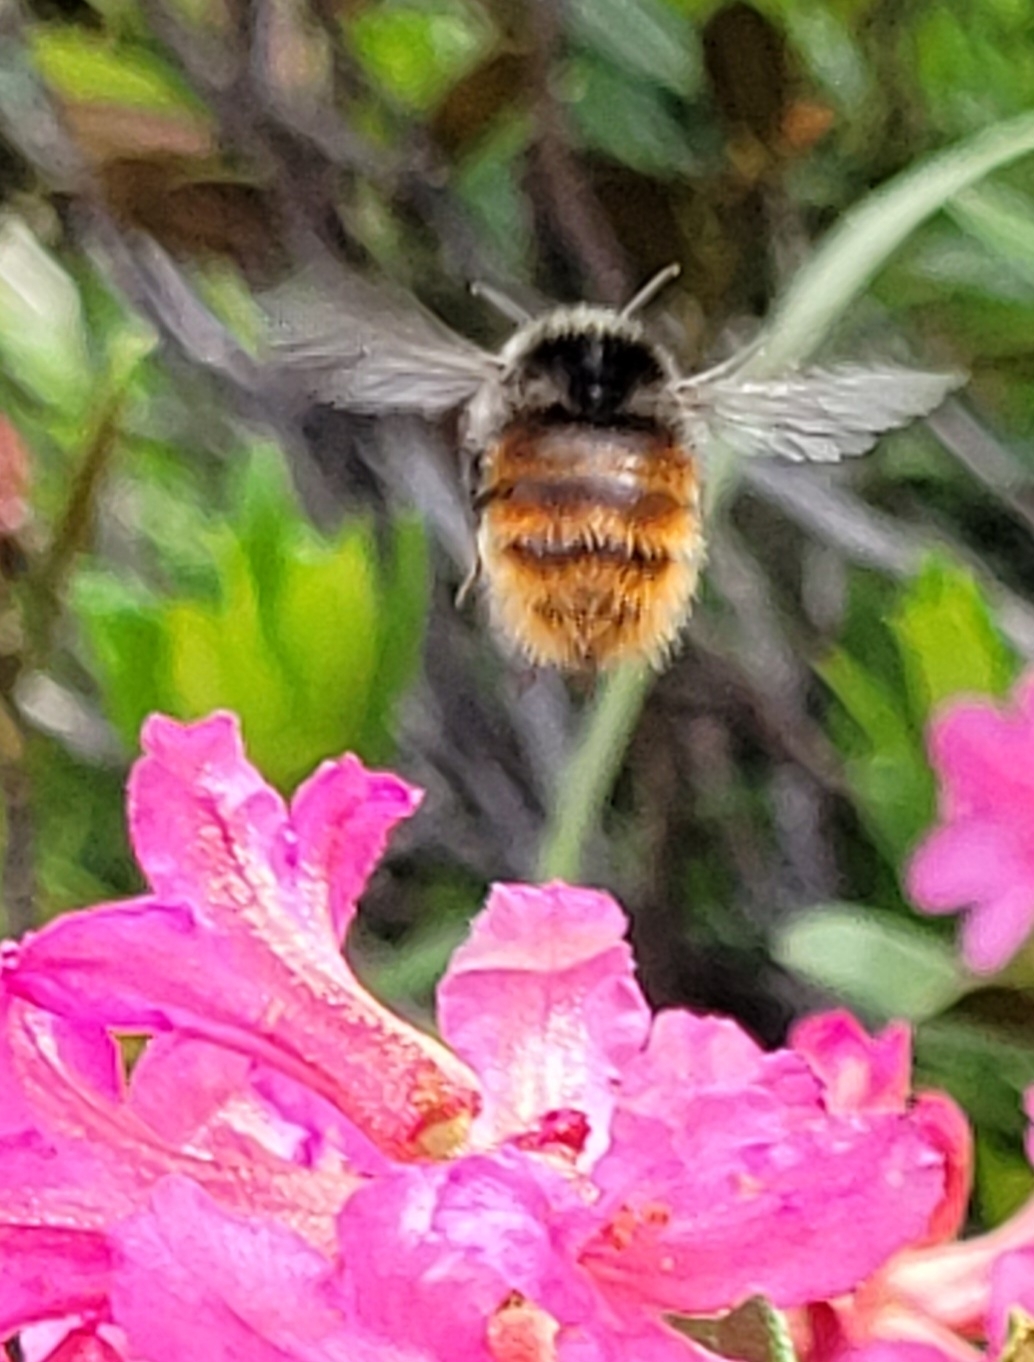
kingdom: Animalia
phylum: Arthropoda
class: Insecta
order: Hymenoptera
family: Apidae
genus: Bombus
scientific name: Bombus monticola
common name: Bilberry humble-bee
